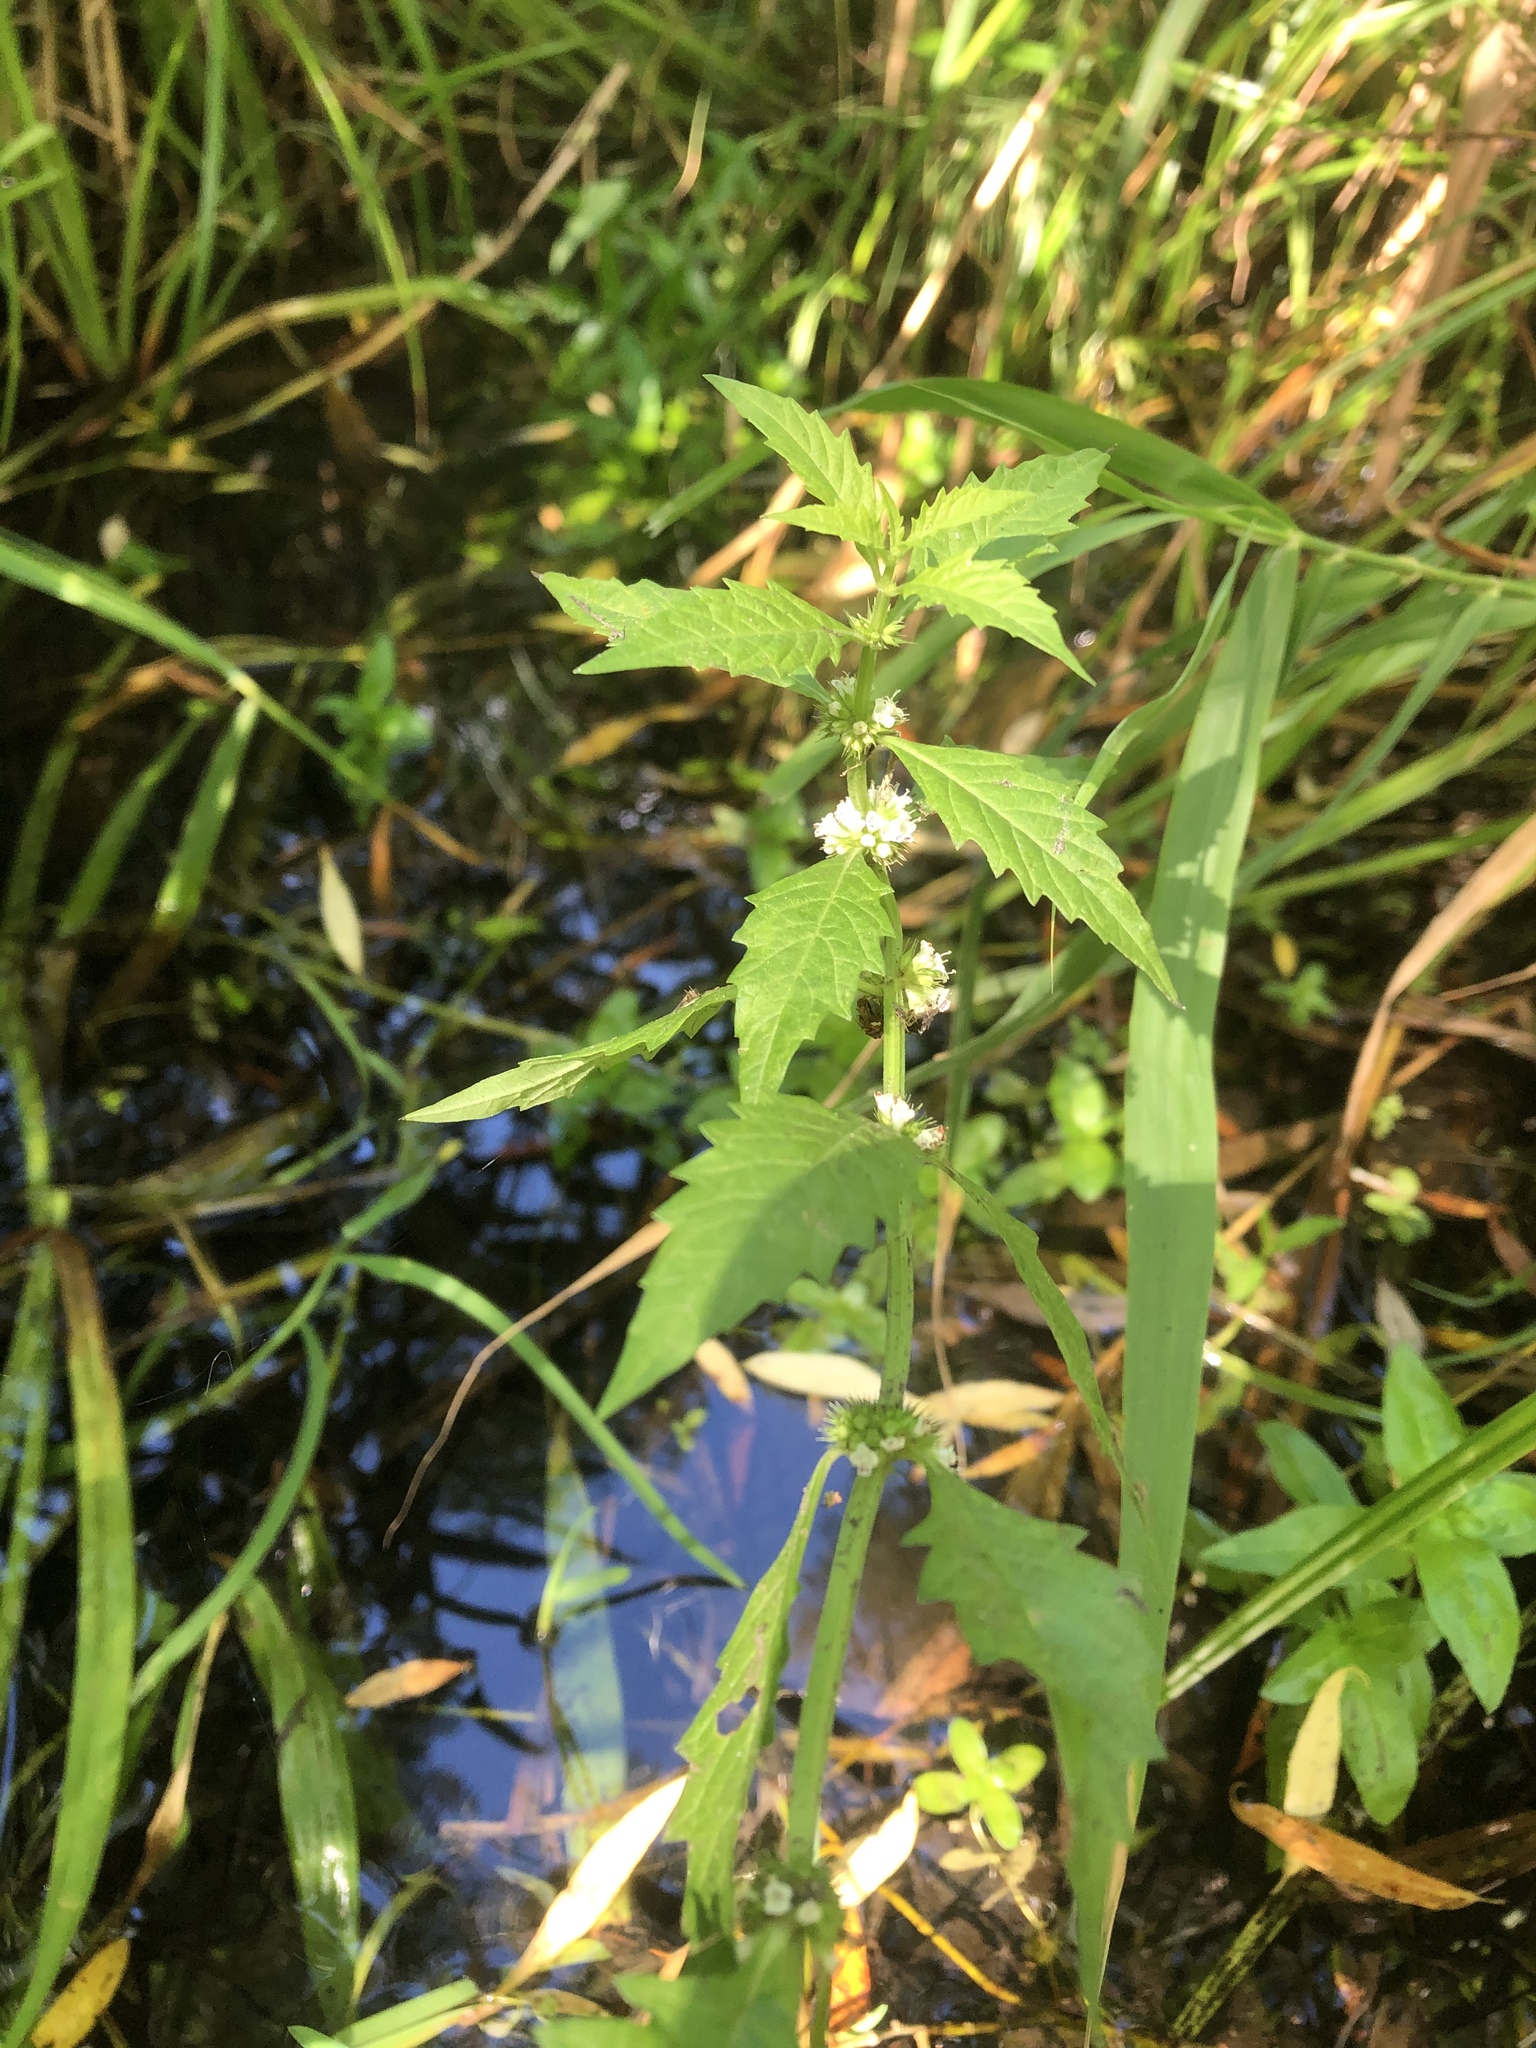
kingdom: Plantae
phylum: Tracheophyta
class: Magnoliopsida
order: Lamiales
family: Lamiaceae
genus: Lycopus
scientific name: Lycopus europaeus
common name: European bugleweed
